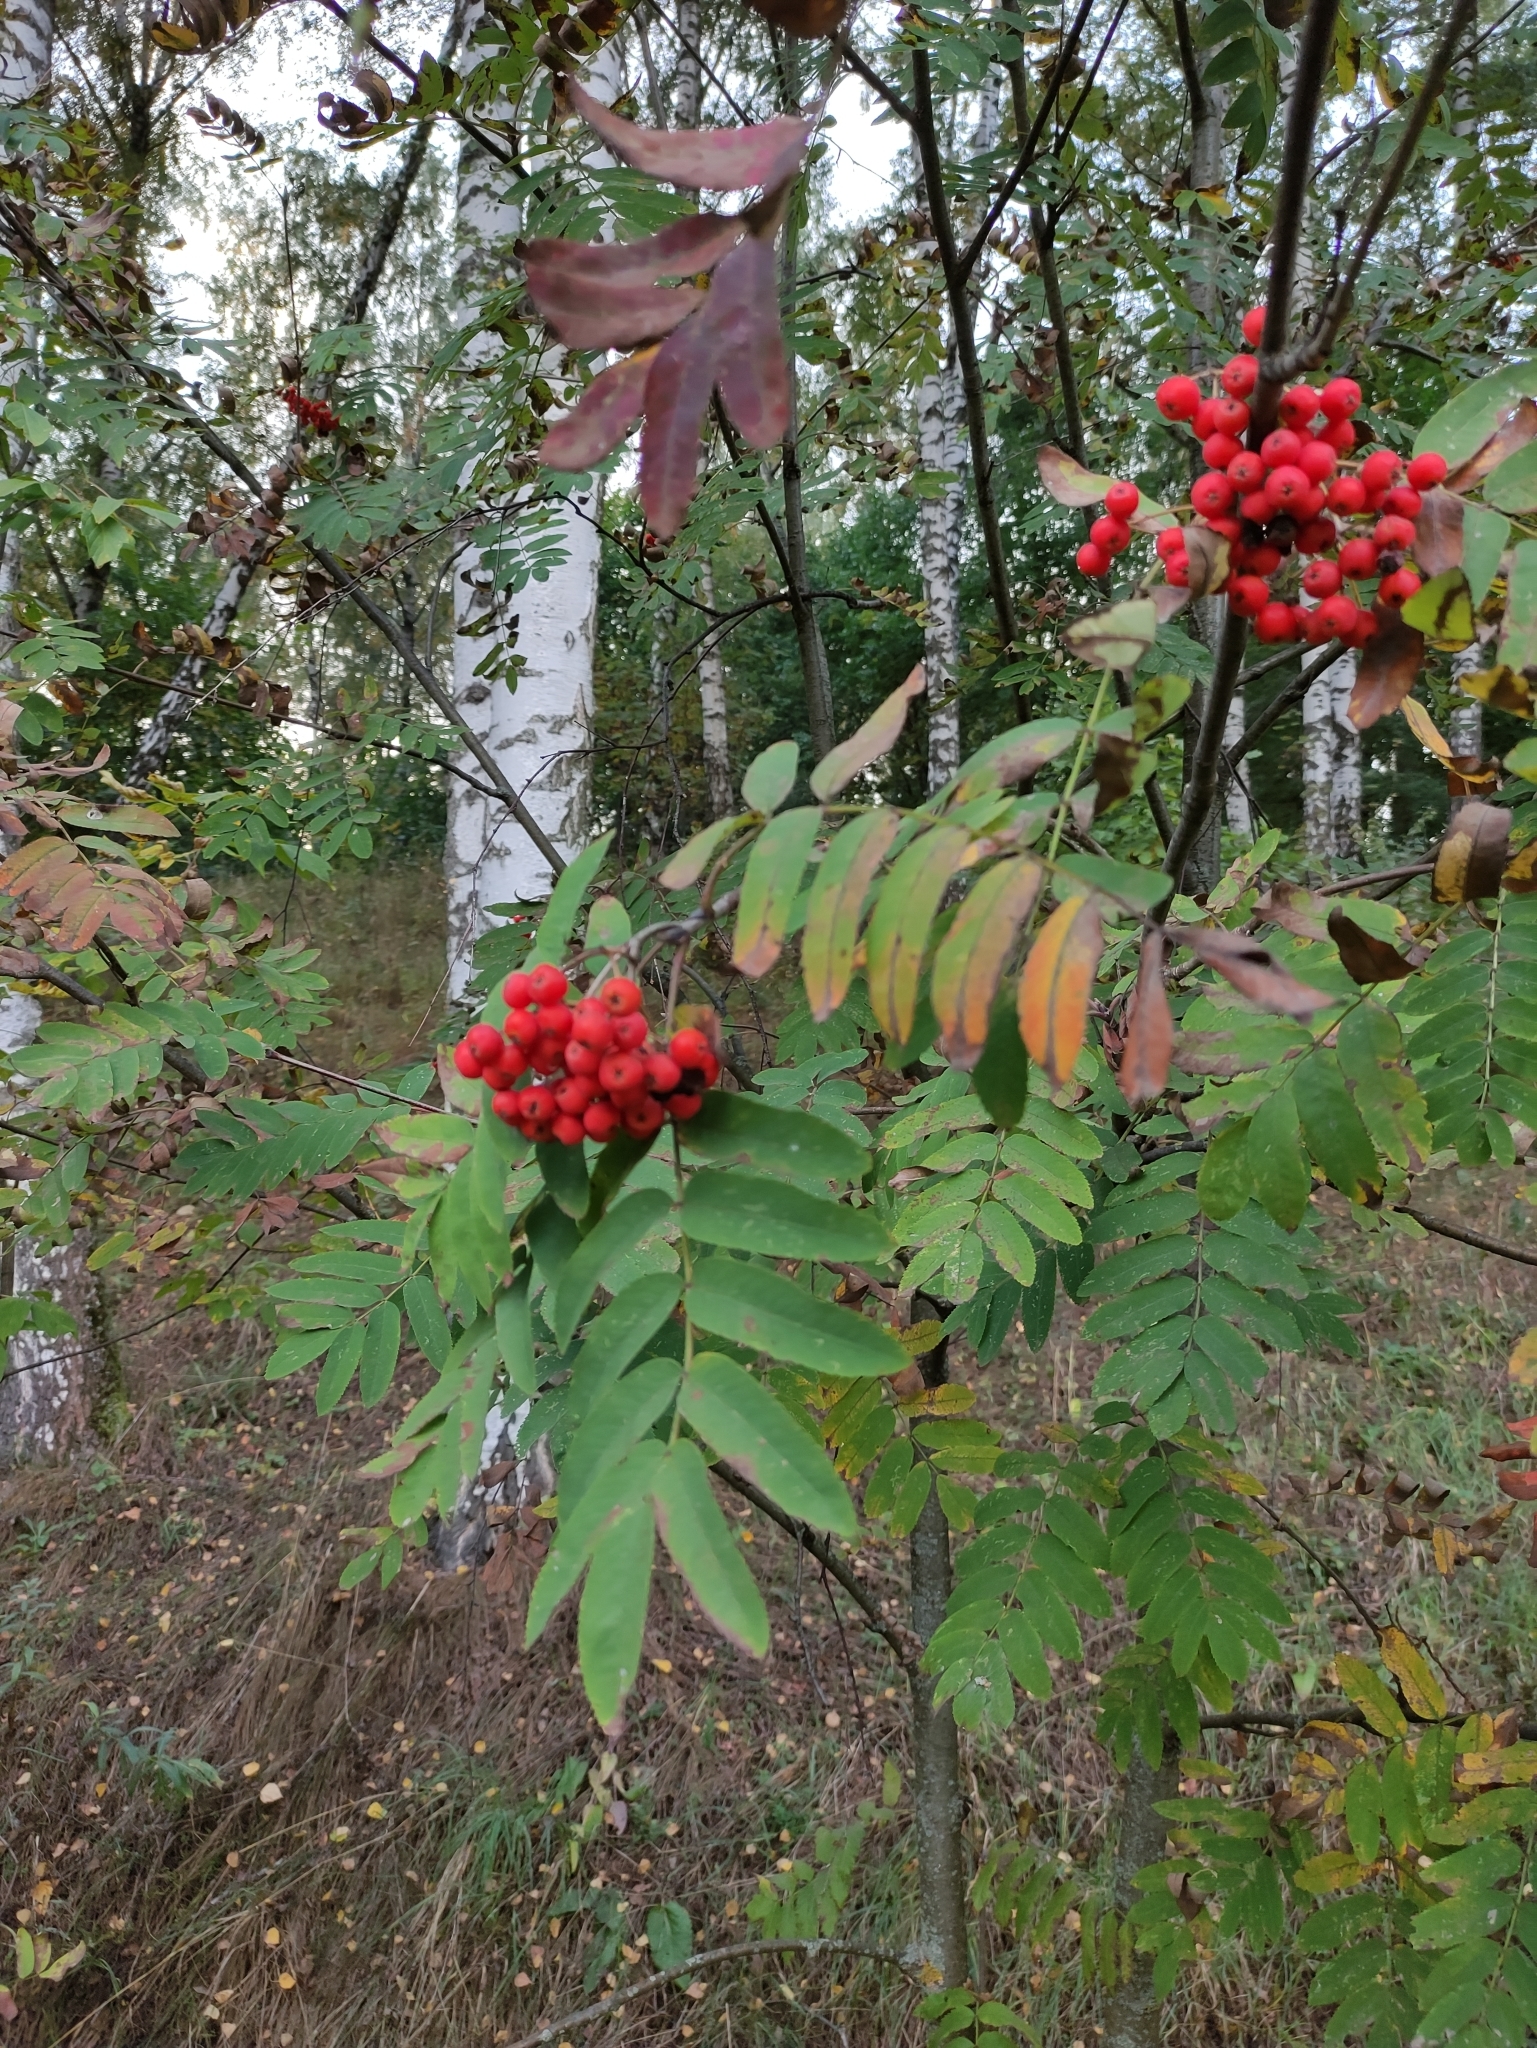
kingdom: Plantae
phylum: Tracheophyta
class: Magnoliopsida
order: Rosales
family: Rosaceae
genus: Sorbus
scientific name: Sorbus aucuparia
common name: Rowan
